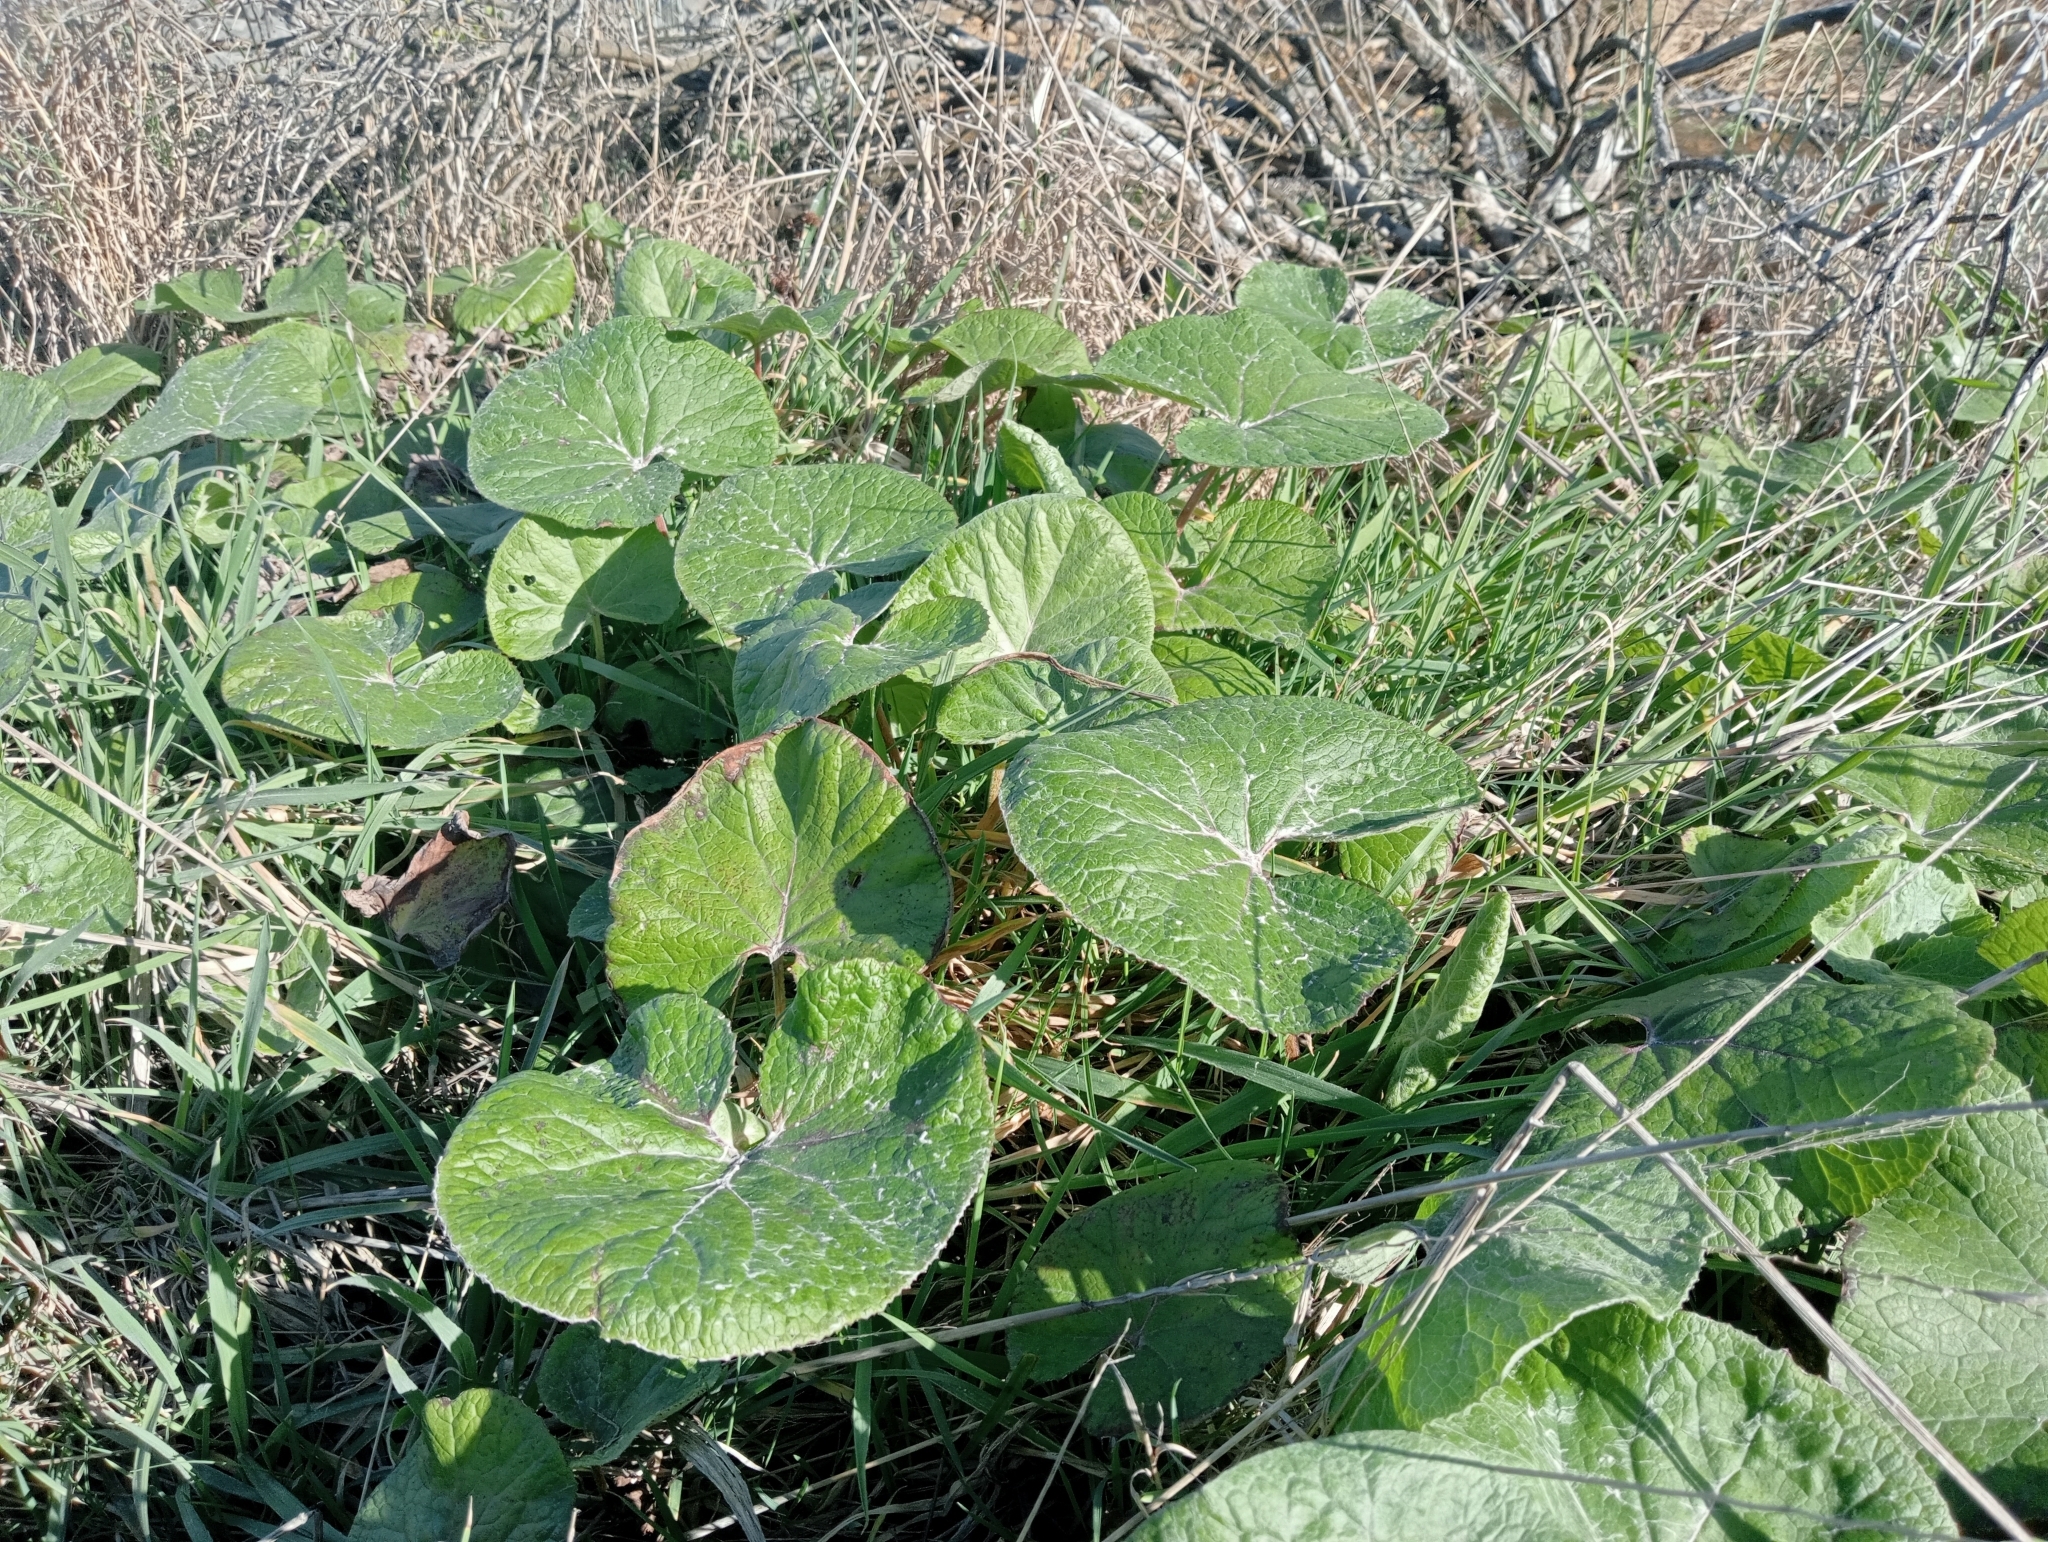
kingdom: Plantae
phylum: Tracheophyta
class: Magnoliopsida
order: Asterales
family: Asteraceae
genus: Petasites
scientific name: Petasites pyrenaicus
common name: Winter heliotrope
